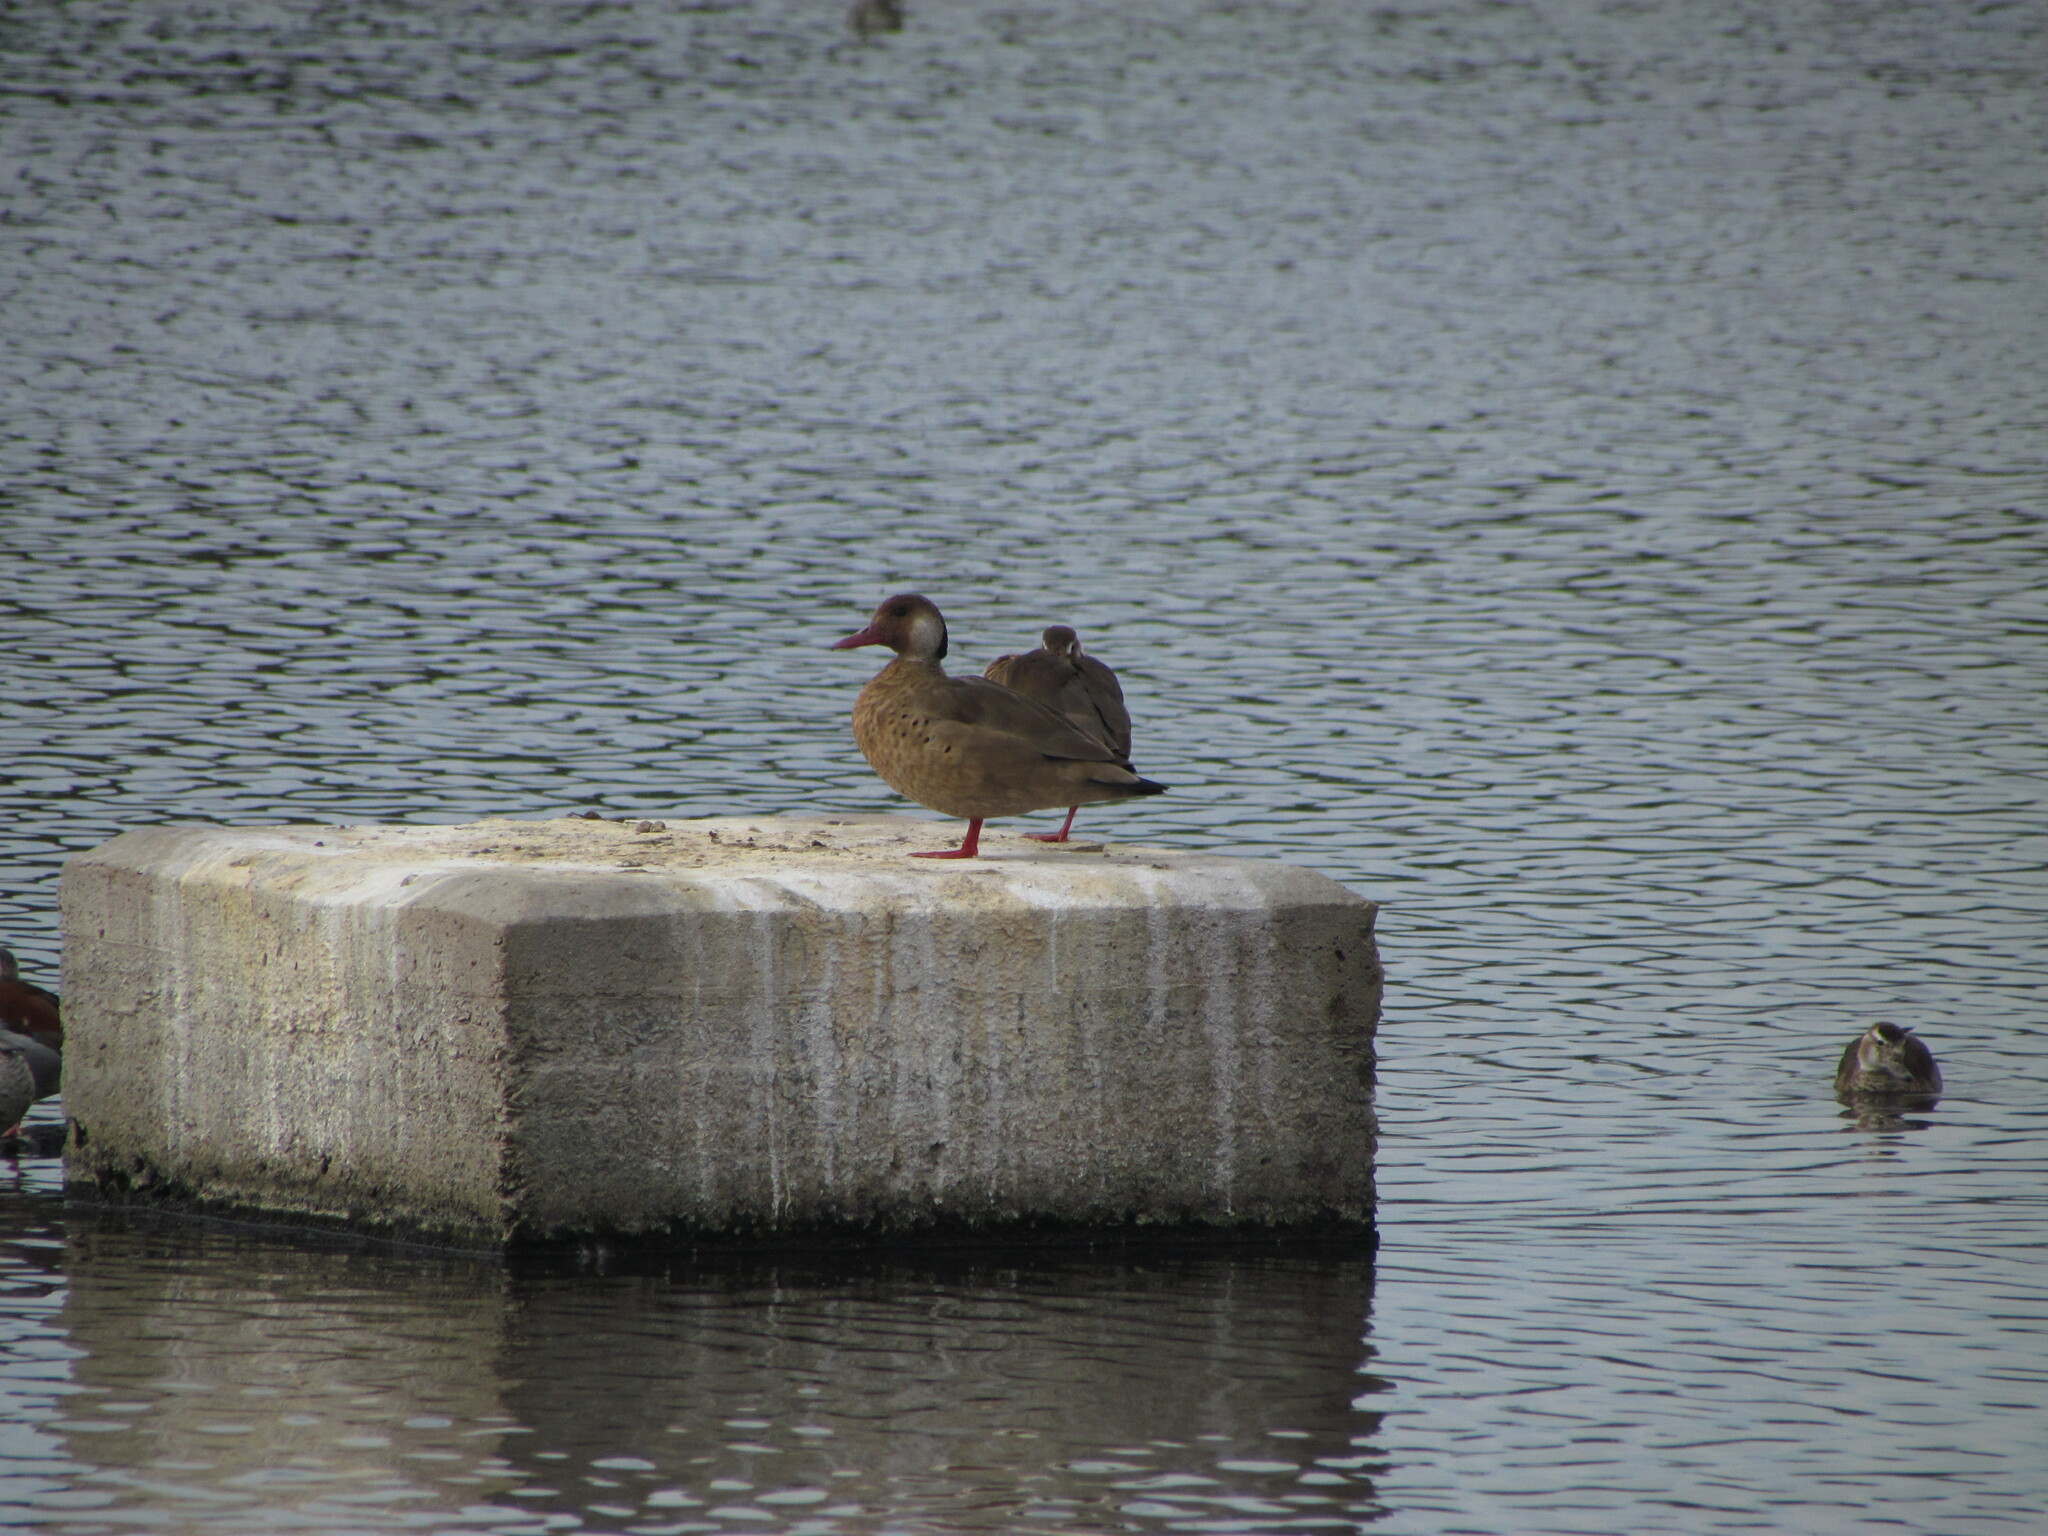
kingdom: Animalia
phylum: Chordata
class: Aves
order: Anseriformes
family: Anatidae
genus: Amazonetta
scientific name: Amazonetta brasiliensis
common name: Brazilian teal
